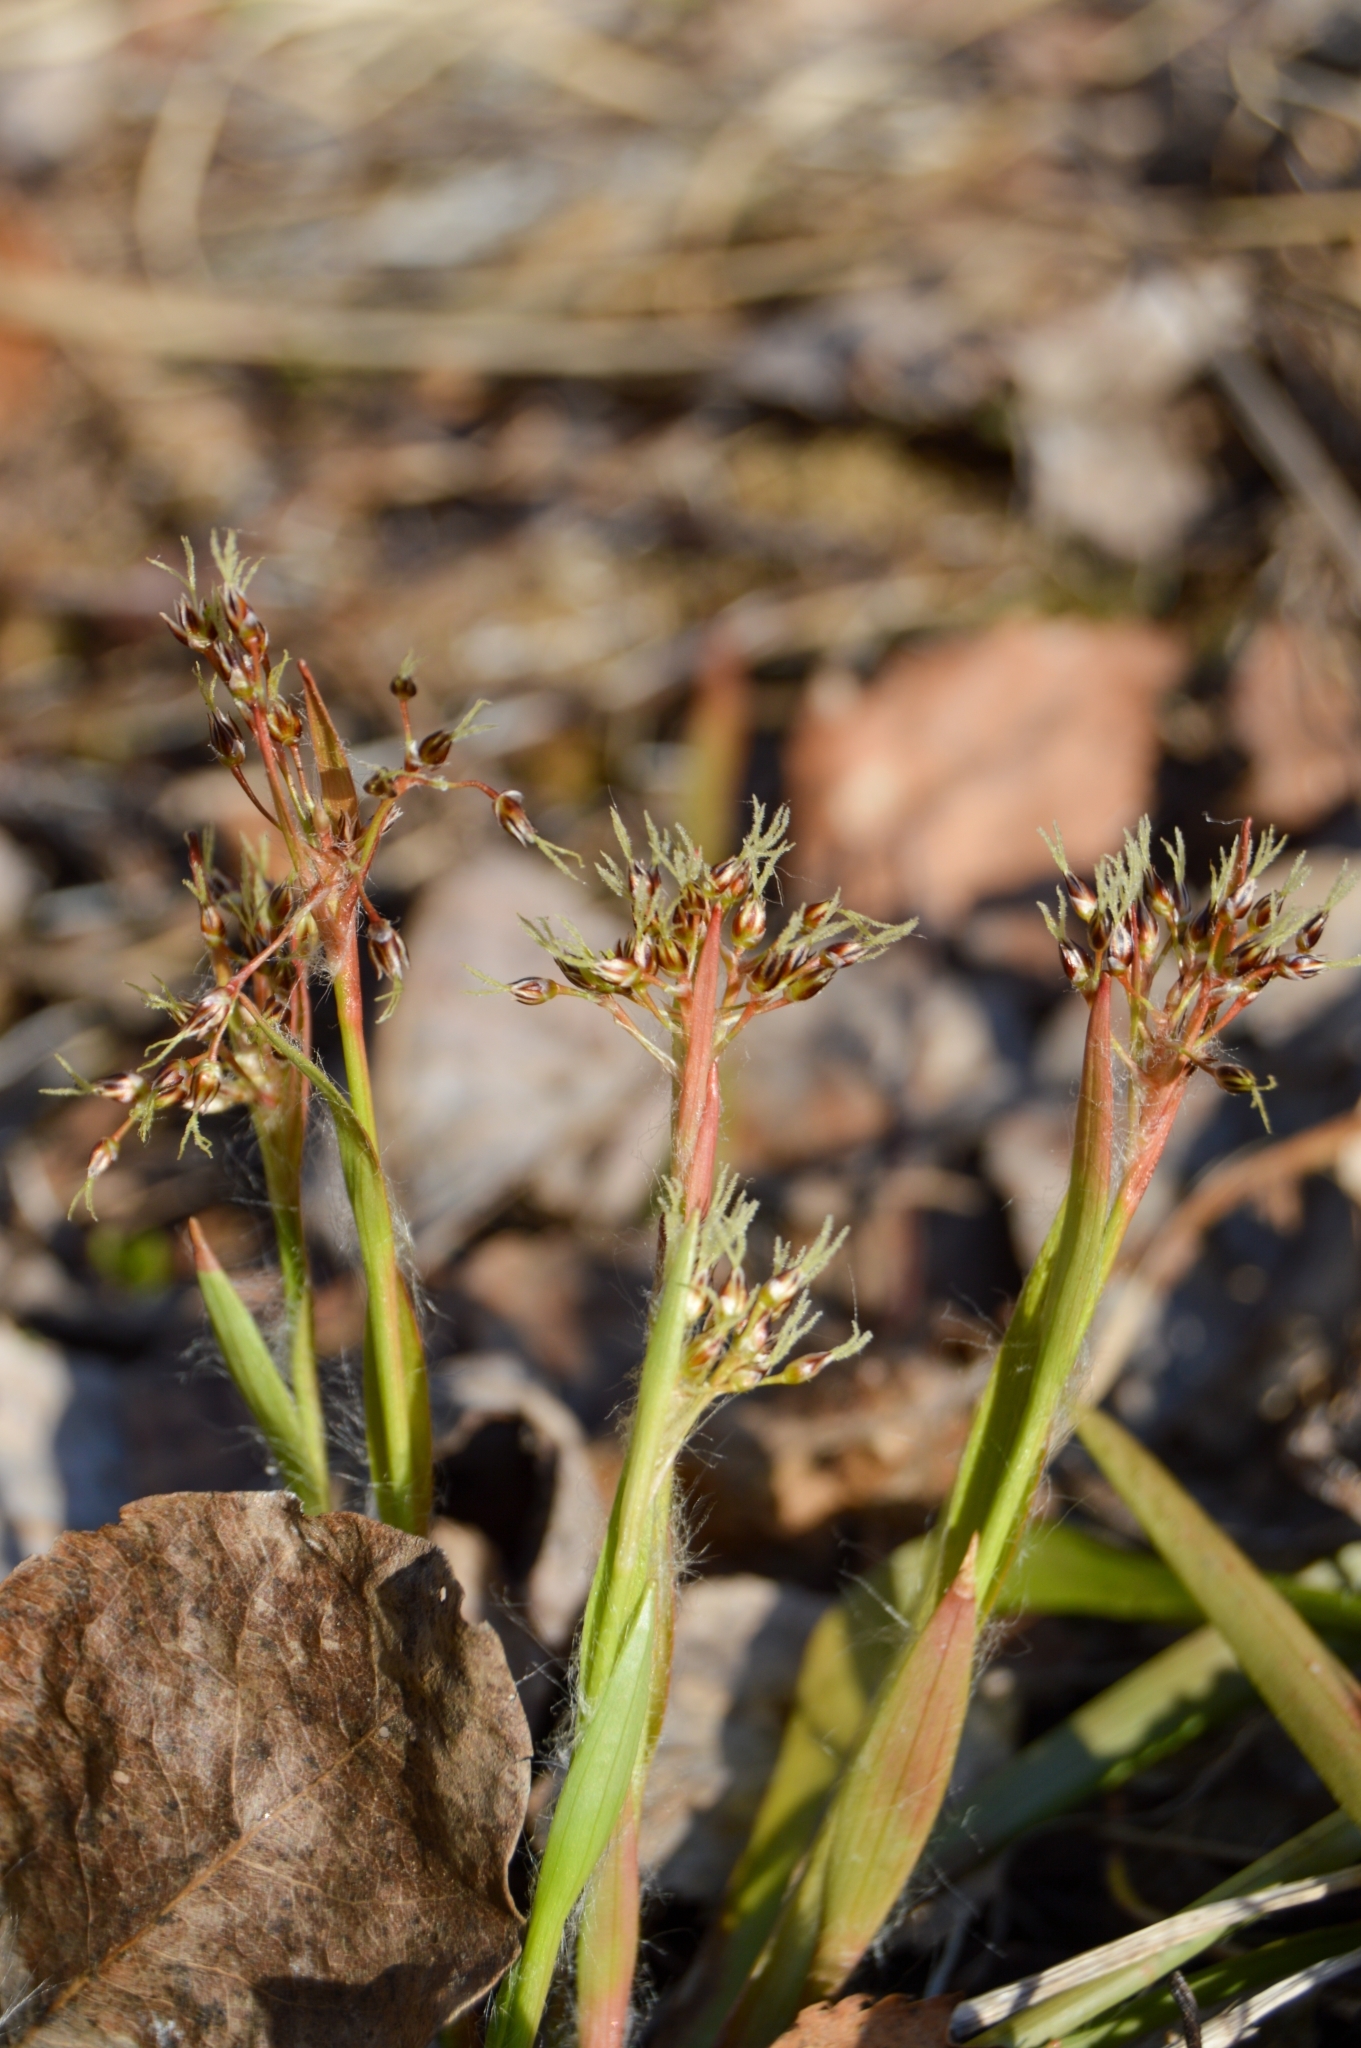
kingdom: Plantae
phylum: Tracheophyta
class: Liliopsida
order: Poales
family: Juncaceae
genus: Luzula
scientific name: Luzula pilosa
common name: Hairy wood-rush
